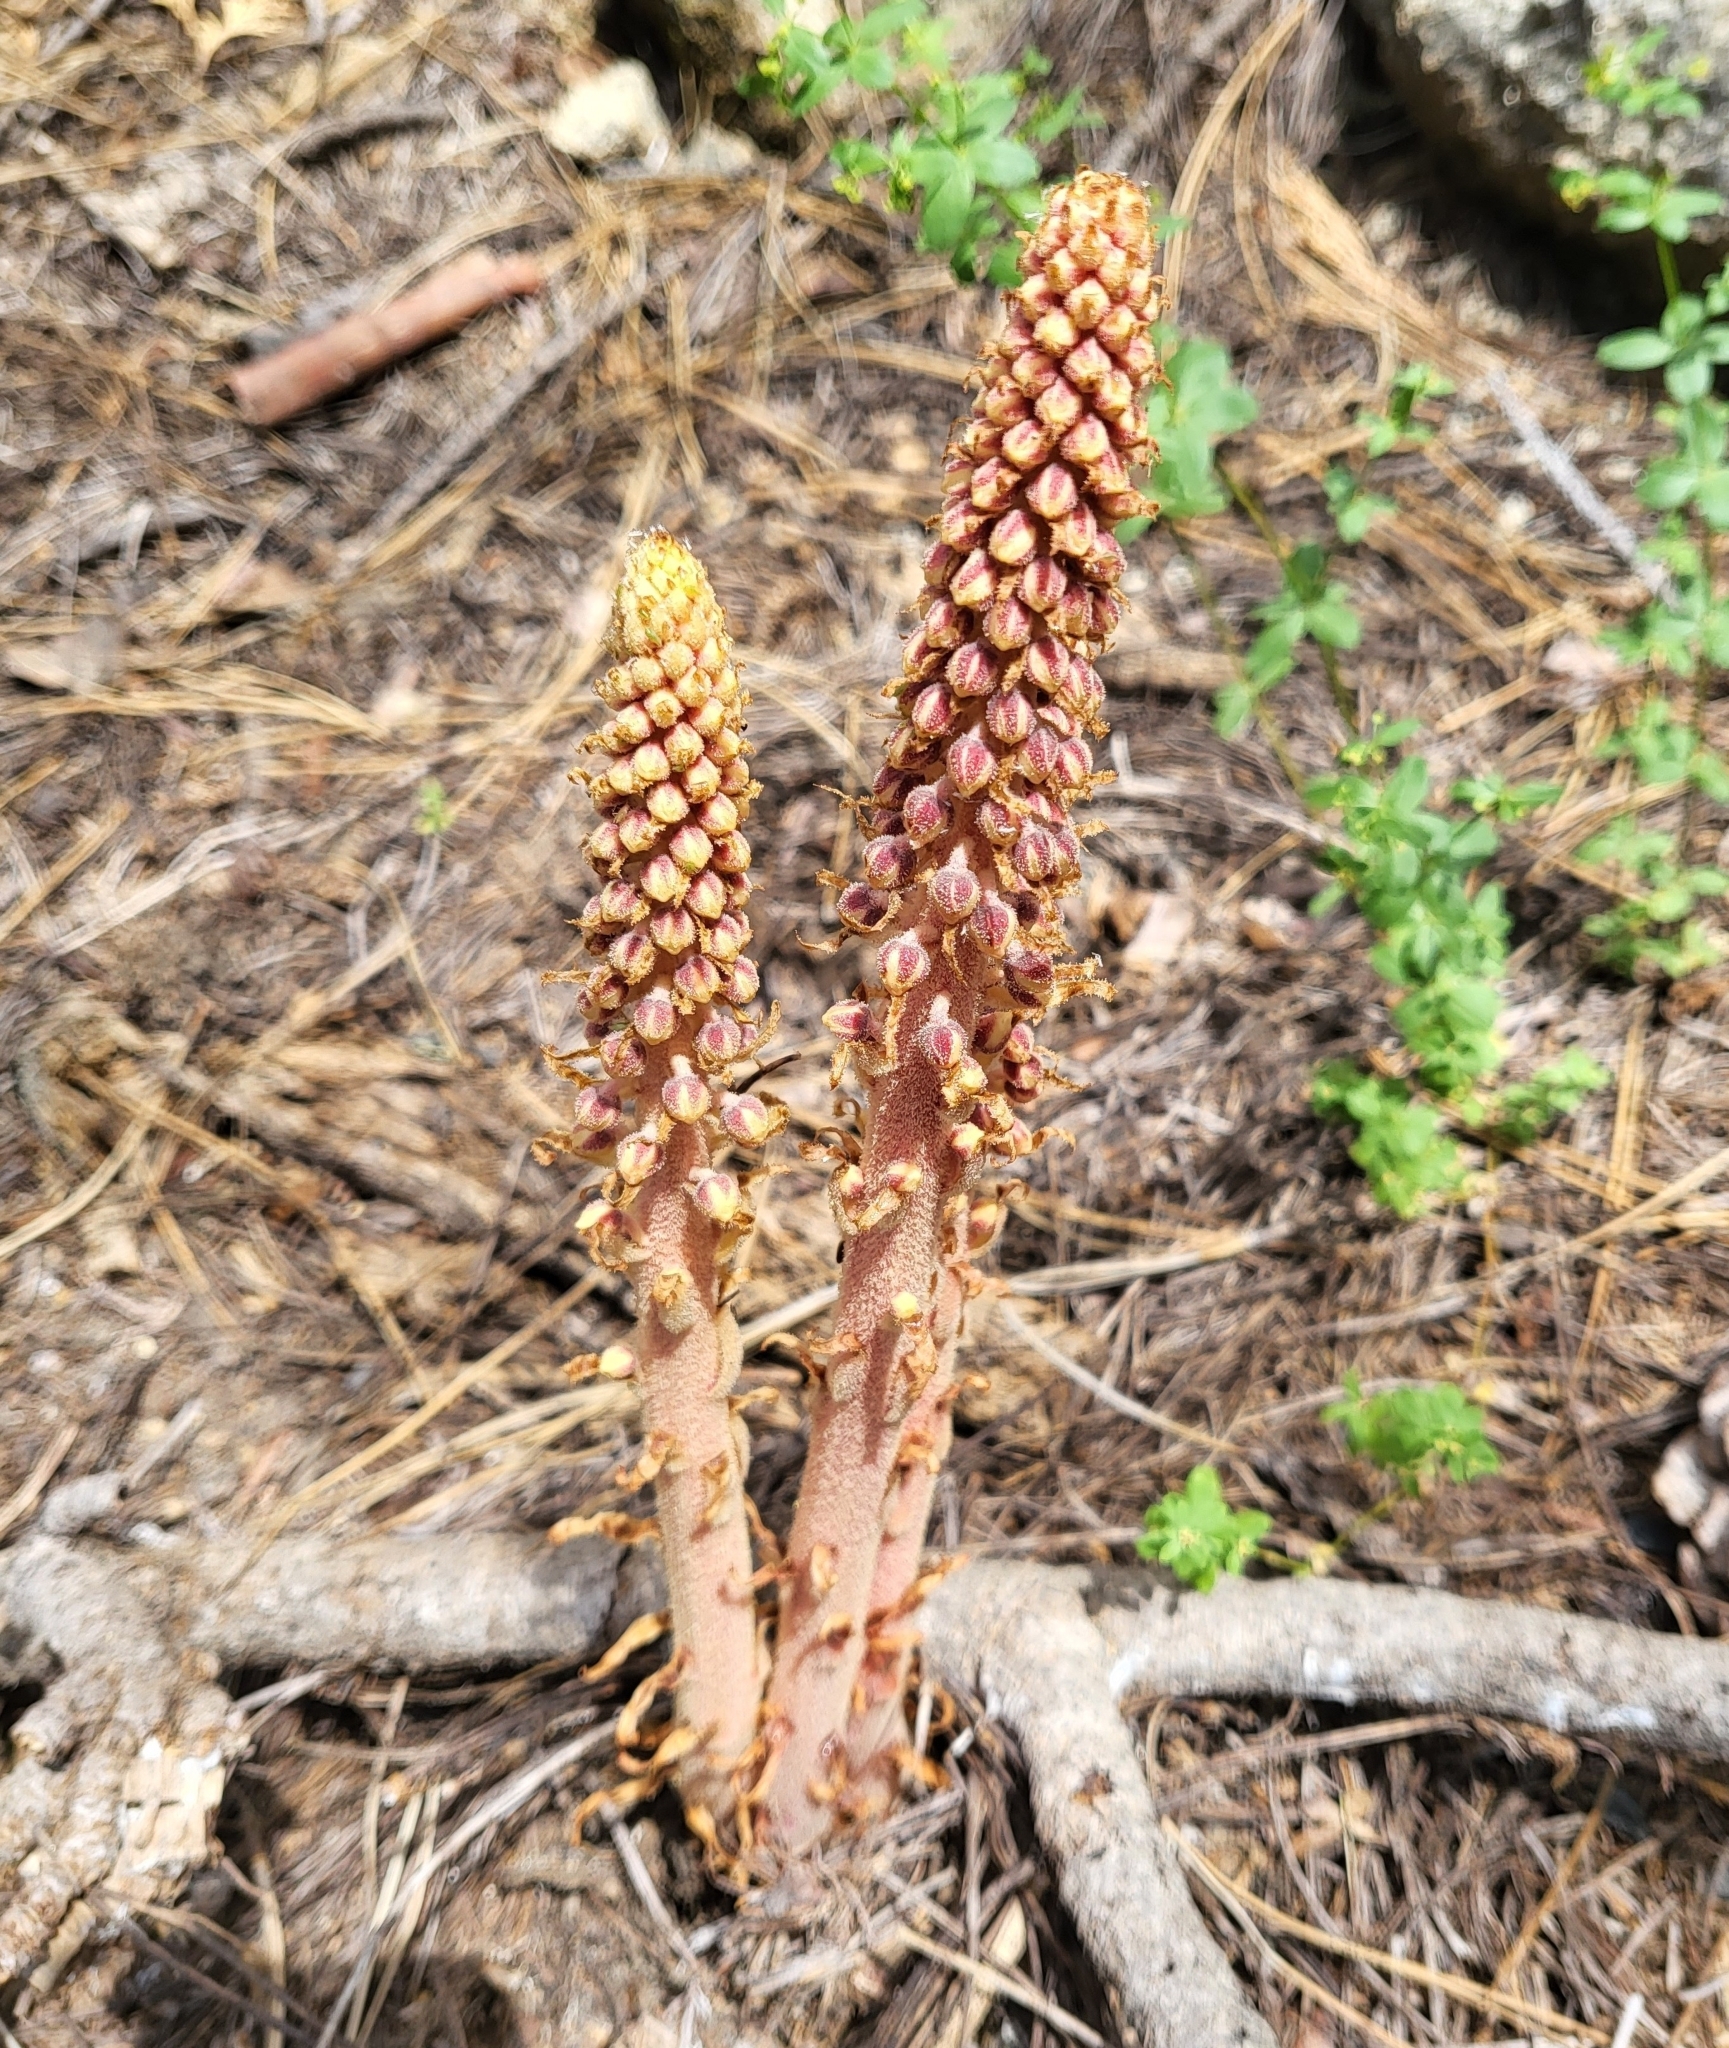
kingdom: Plantae
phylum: Tracheophyta
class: Magnoliopsida
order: Ericales
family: Ericaceae
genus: Pterospora
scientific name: Pterospora andromedea
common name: Giant bird's-nest
